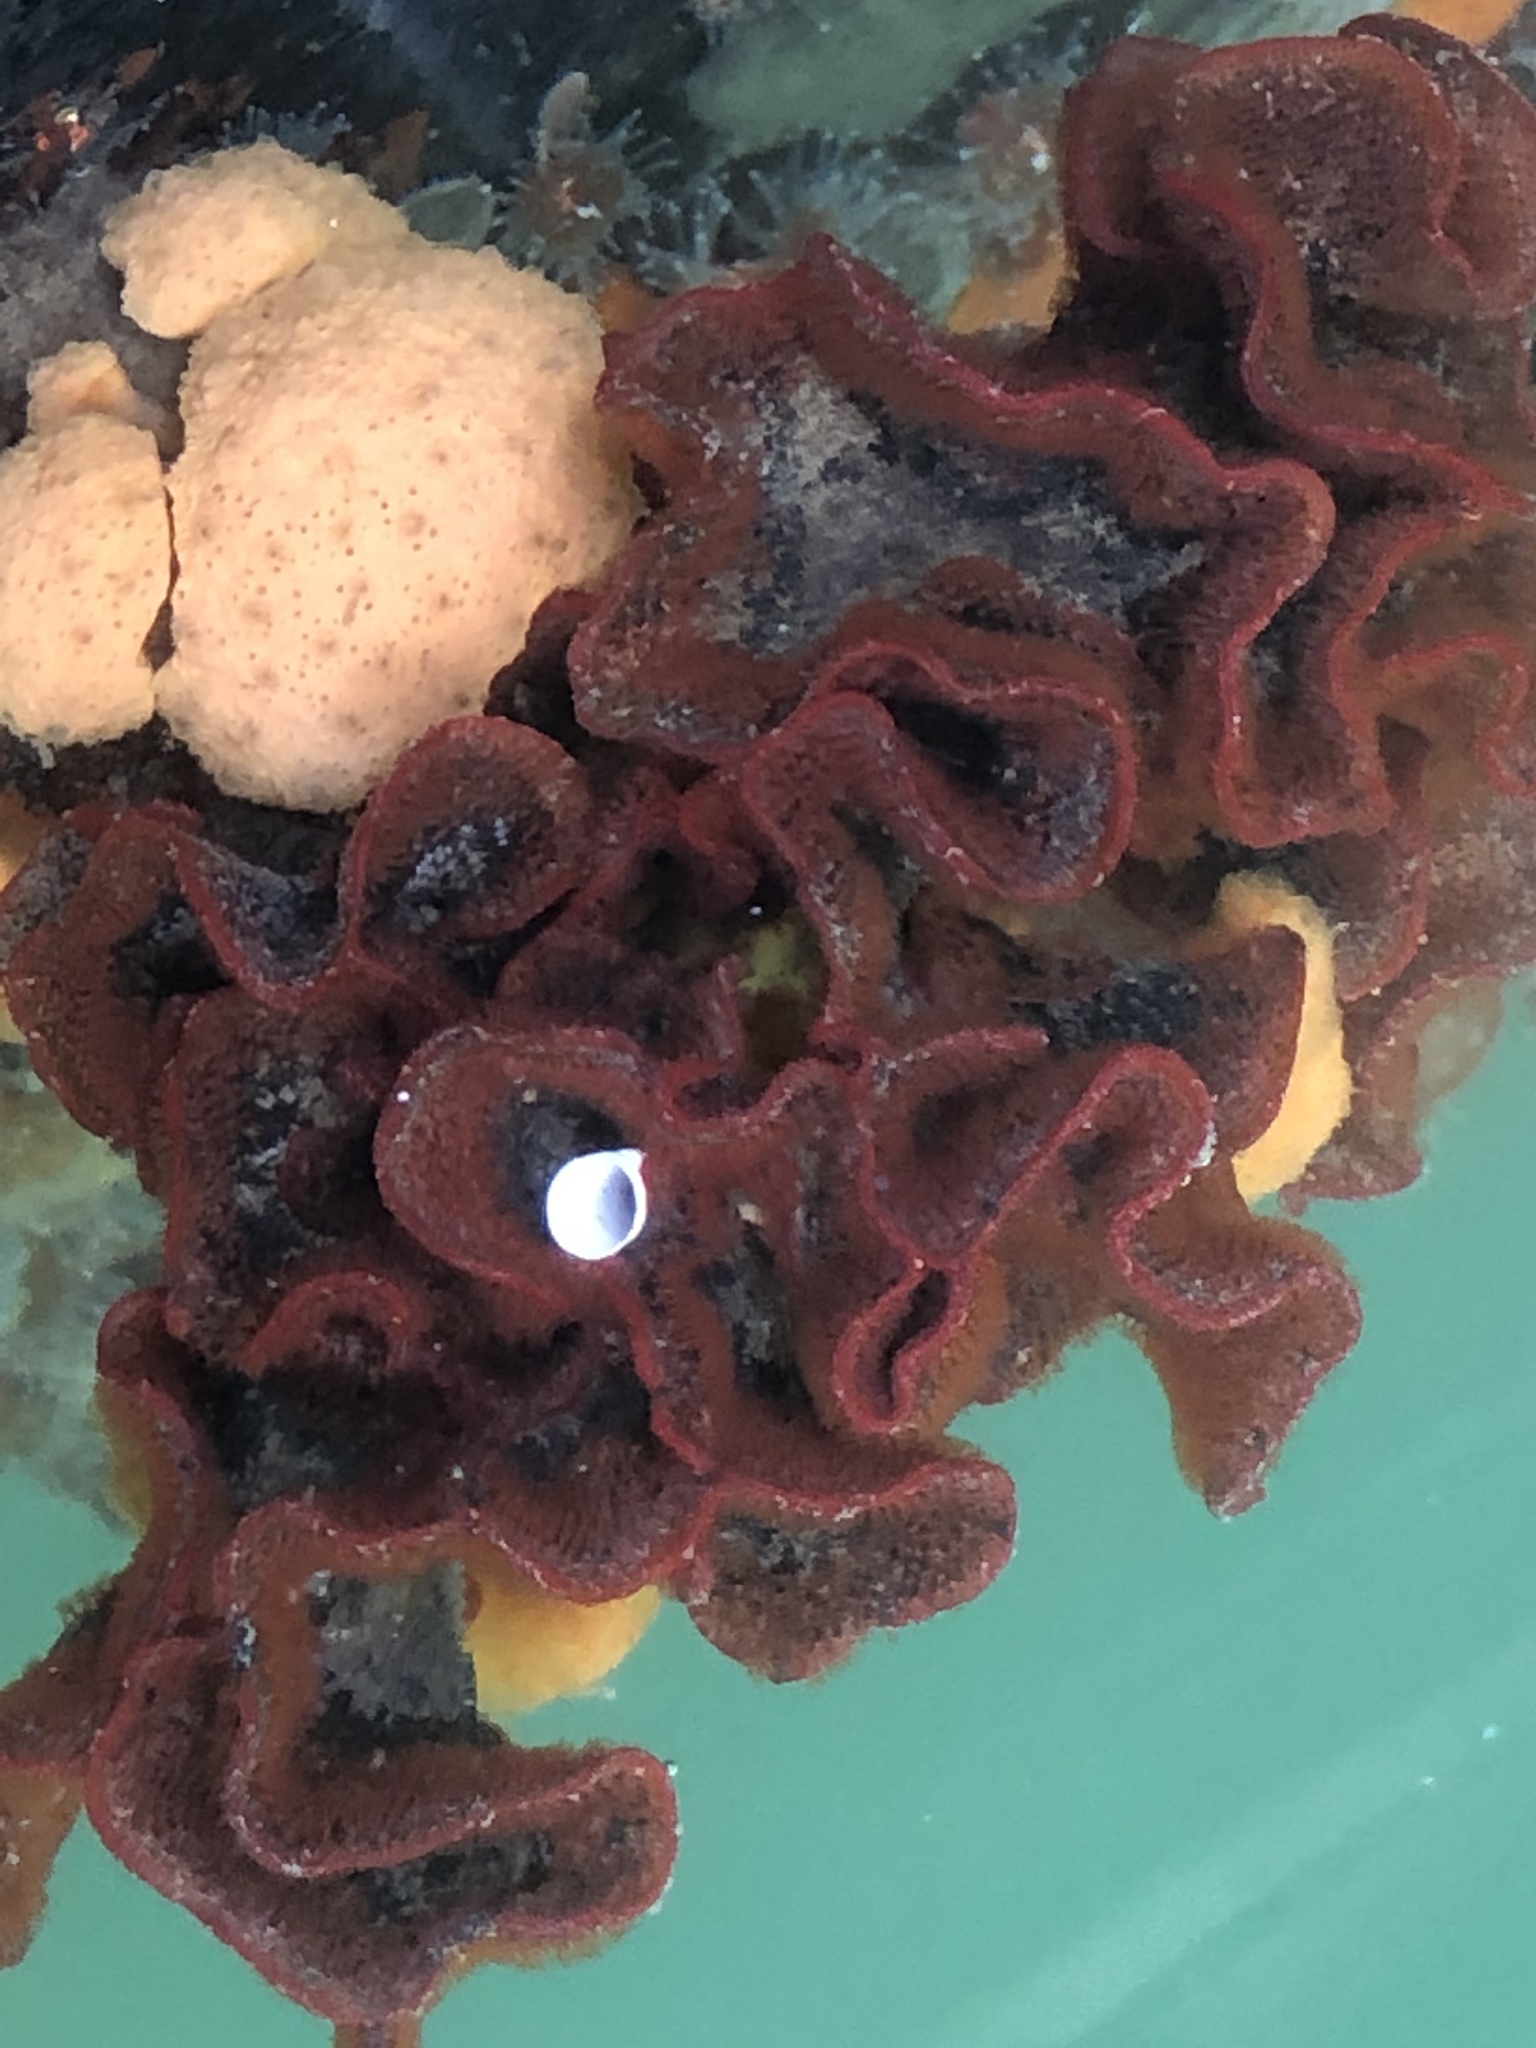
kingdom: Animalia
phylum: Bryozoa
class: Gymnolaemata
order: Cheilostomatida
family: Watersiporidae
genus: Watersipora
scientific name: Watersipora subtorquata
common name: Bryozoan
